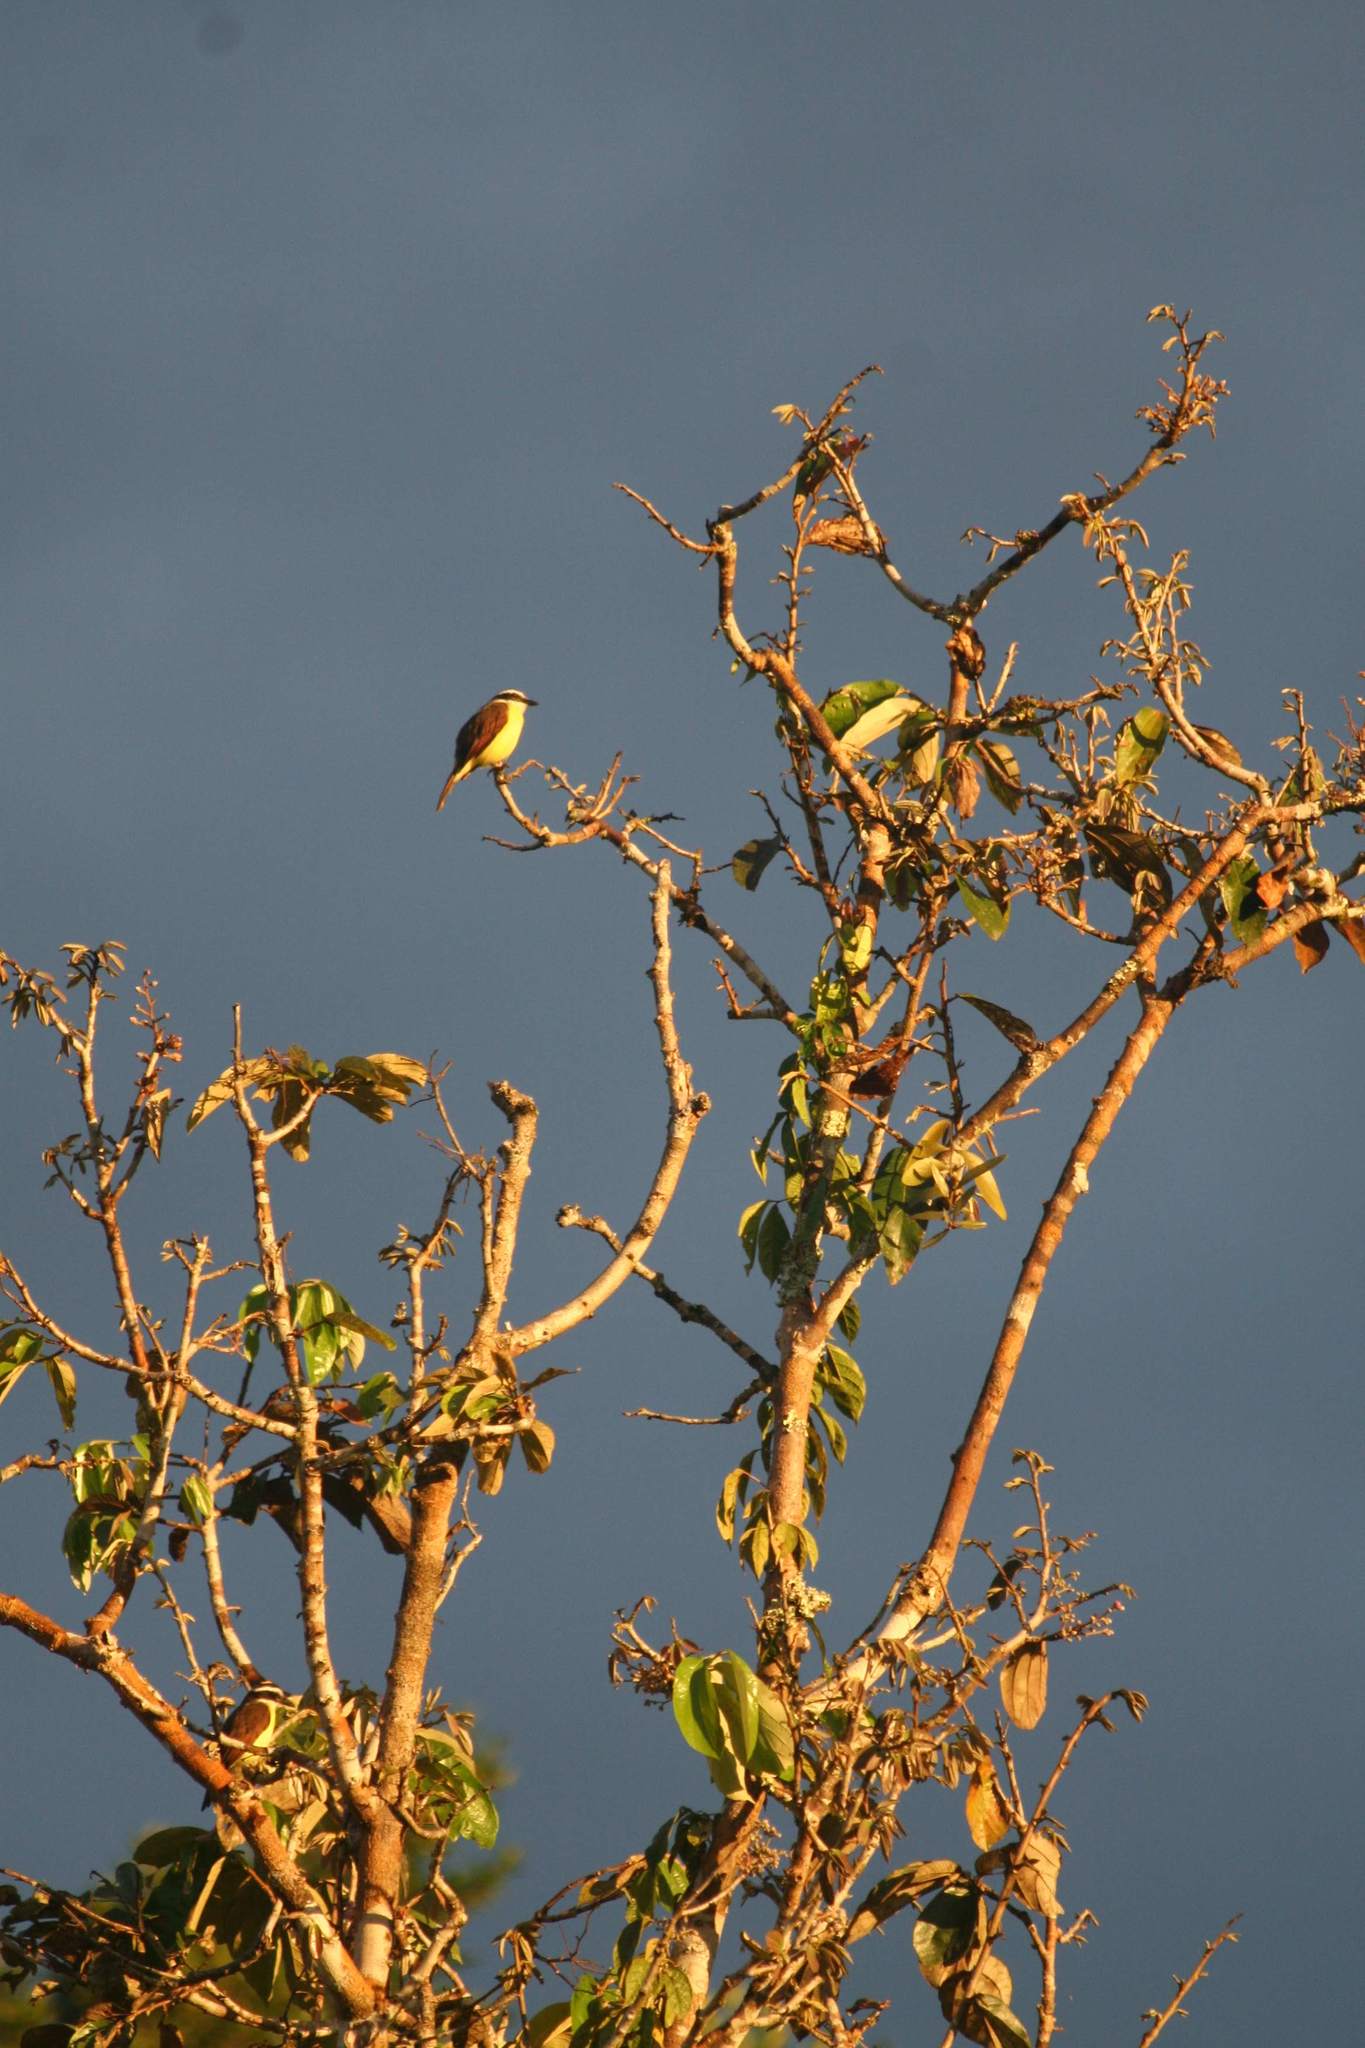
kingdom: Animalia
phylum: Chordata
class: Aves
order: Passeriformes
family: Tyrannidae
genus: Pitangus
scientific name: Pitangus sulphuratus
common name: Great kiskadee
